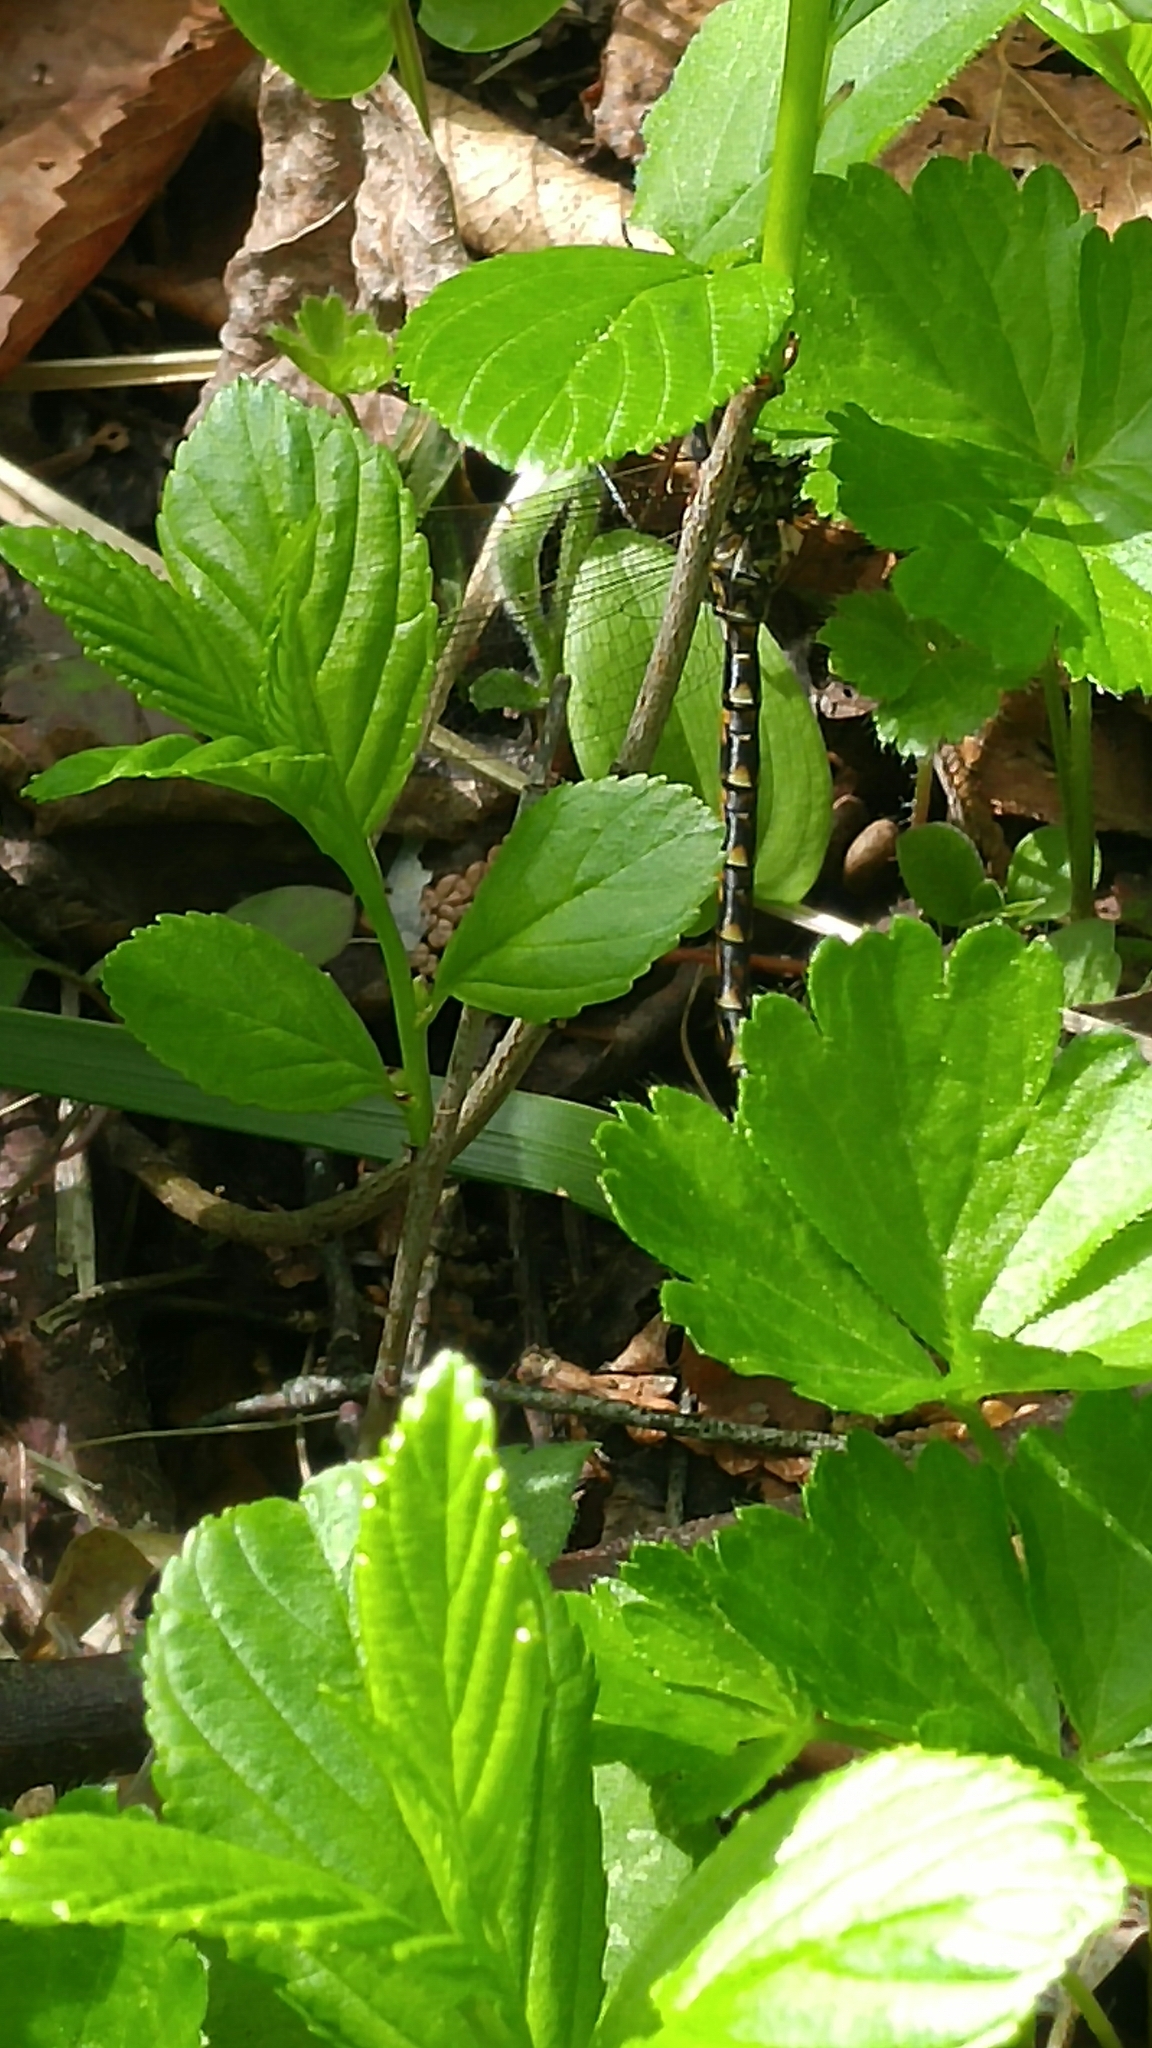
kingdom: Animalia
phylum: Arthropoda
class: Insecta
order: Odonata
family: Aeshnidae
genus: Gomphaeschna
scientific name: Gomphaeschna furcillata
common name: Harlequin darner
